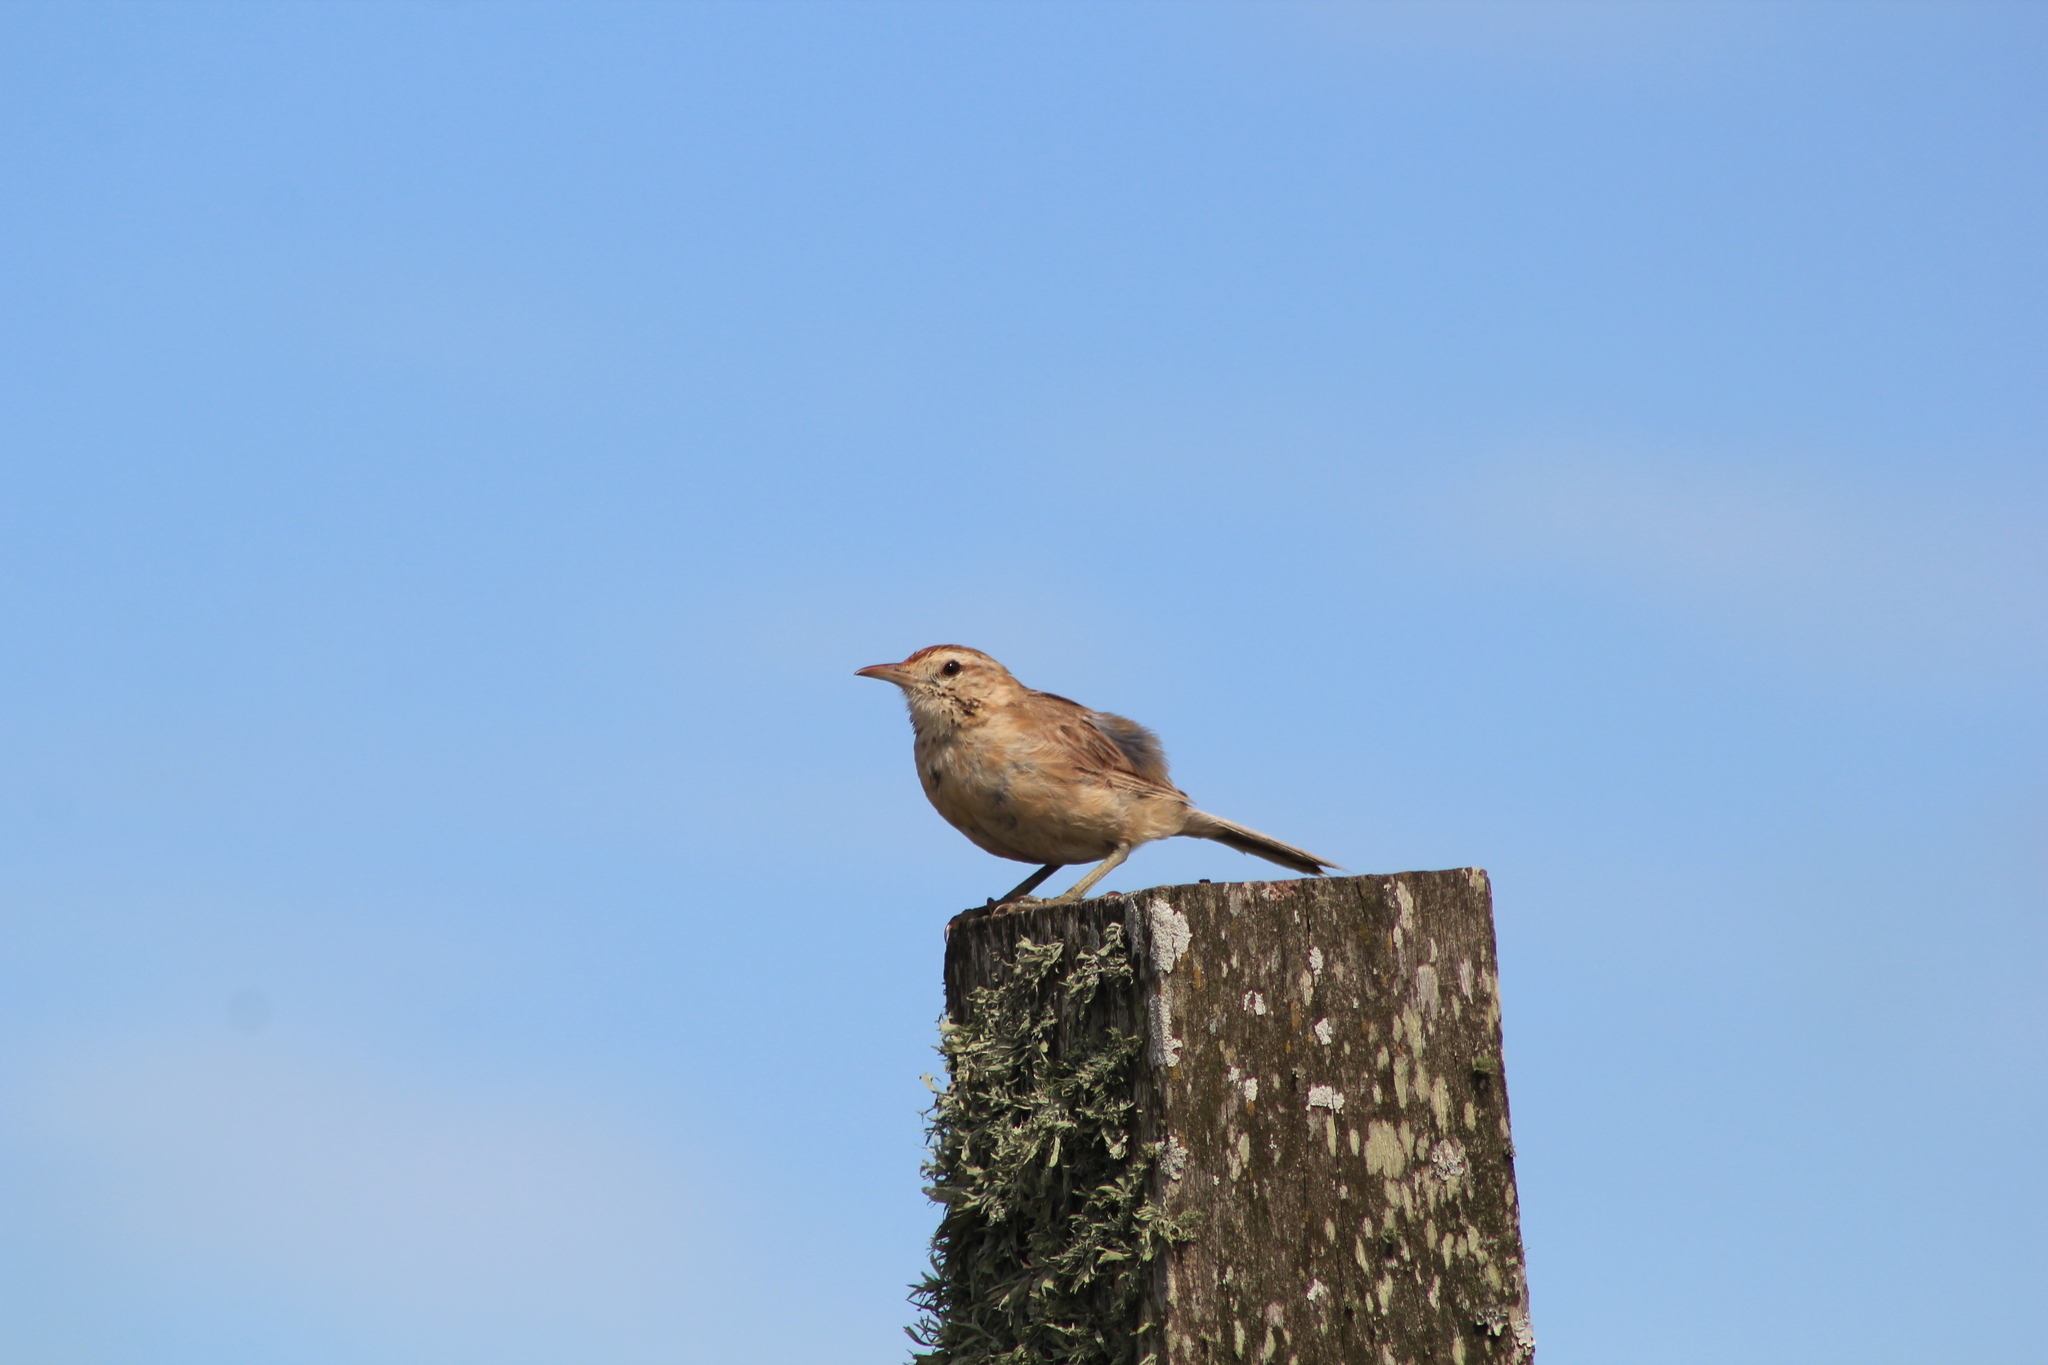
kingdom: Animalia
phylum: Chordata
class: Aves
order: Passeriformes
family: Furnariidae
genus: Anumbius
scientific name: Anumbius annumbi
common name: Firewood-gatherer
